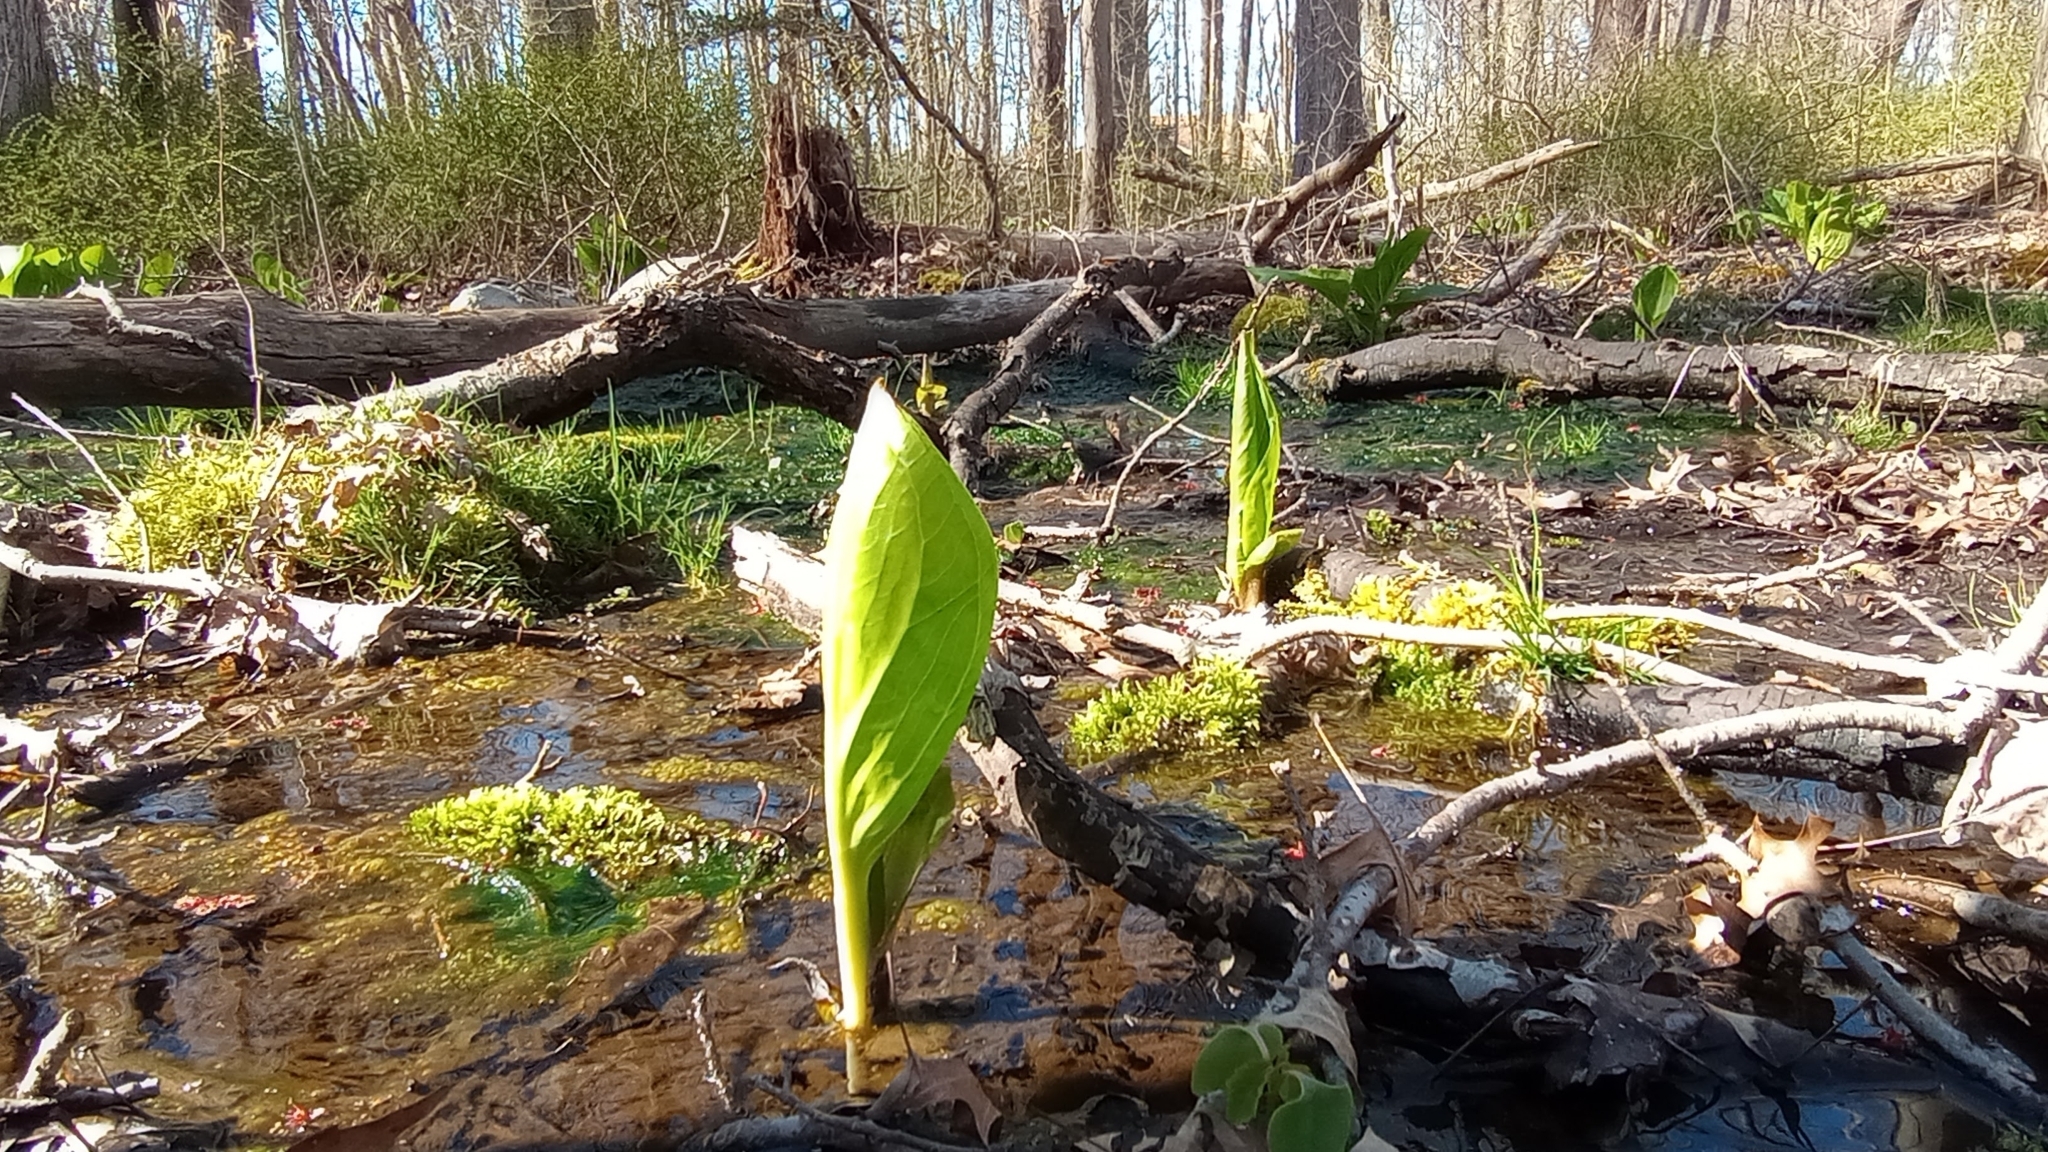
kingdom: Plantae
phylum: Tracheophyta
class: Liliopsida
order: Alismatales
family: Araceae
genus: Symplocarpus
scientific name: Symplocarpus foetidus
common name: Eastern skunk cabbage
